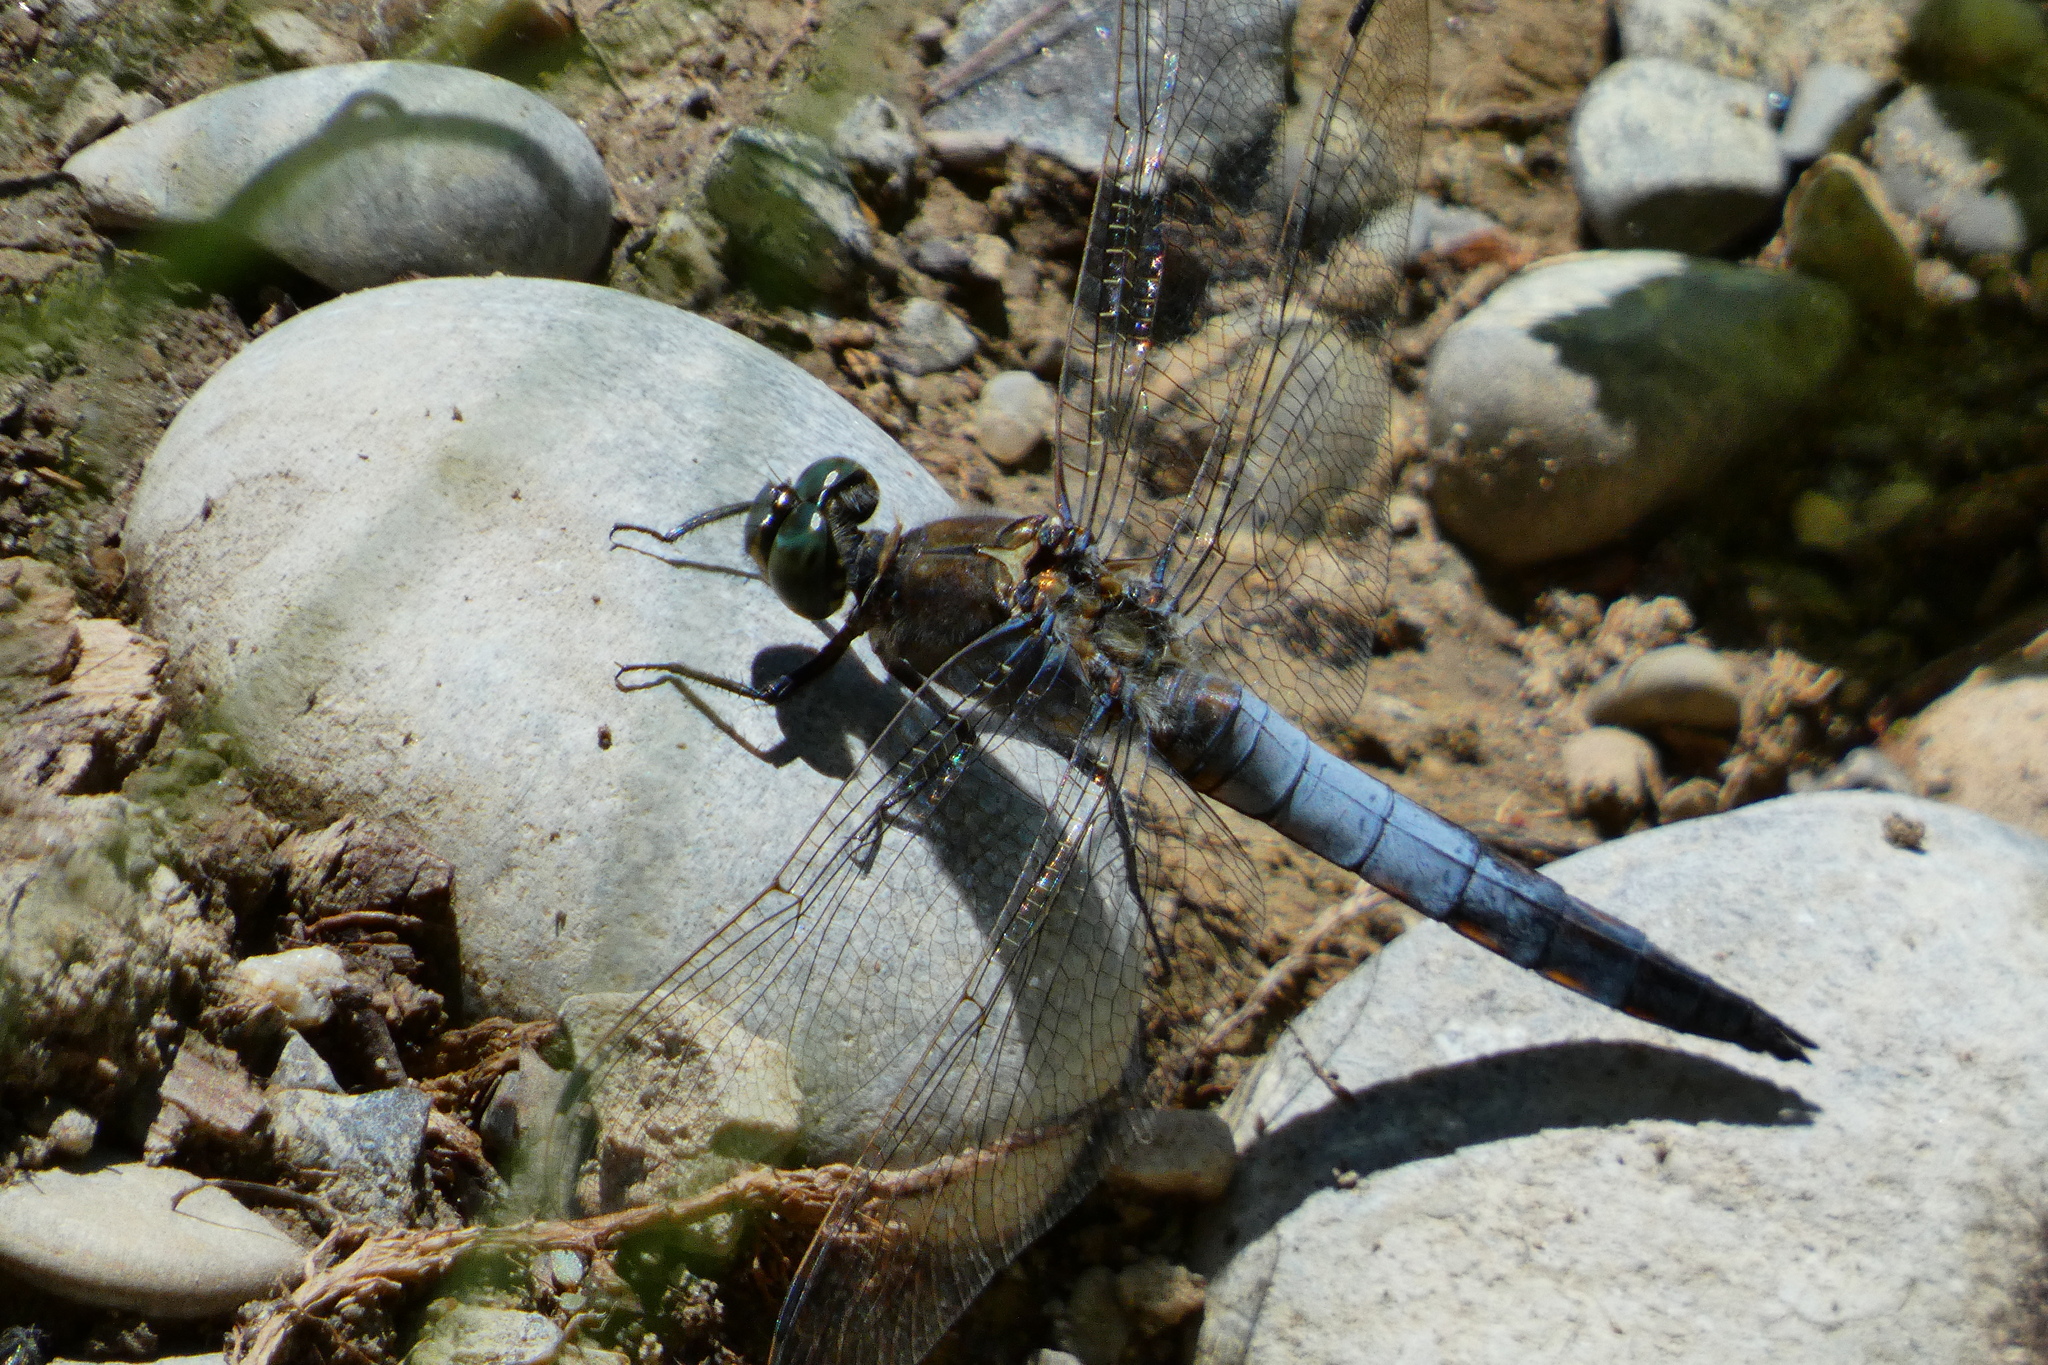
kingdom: Animalia
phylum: Arthropoda
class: Insecta
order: Odonata
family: Libellulidae
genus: Orthetrum
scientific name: Orthetrum cancellatum
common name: Black-tailed skimmer
